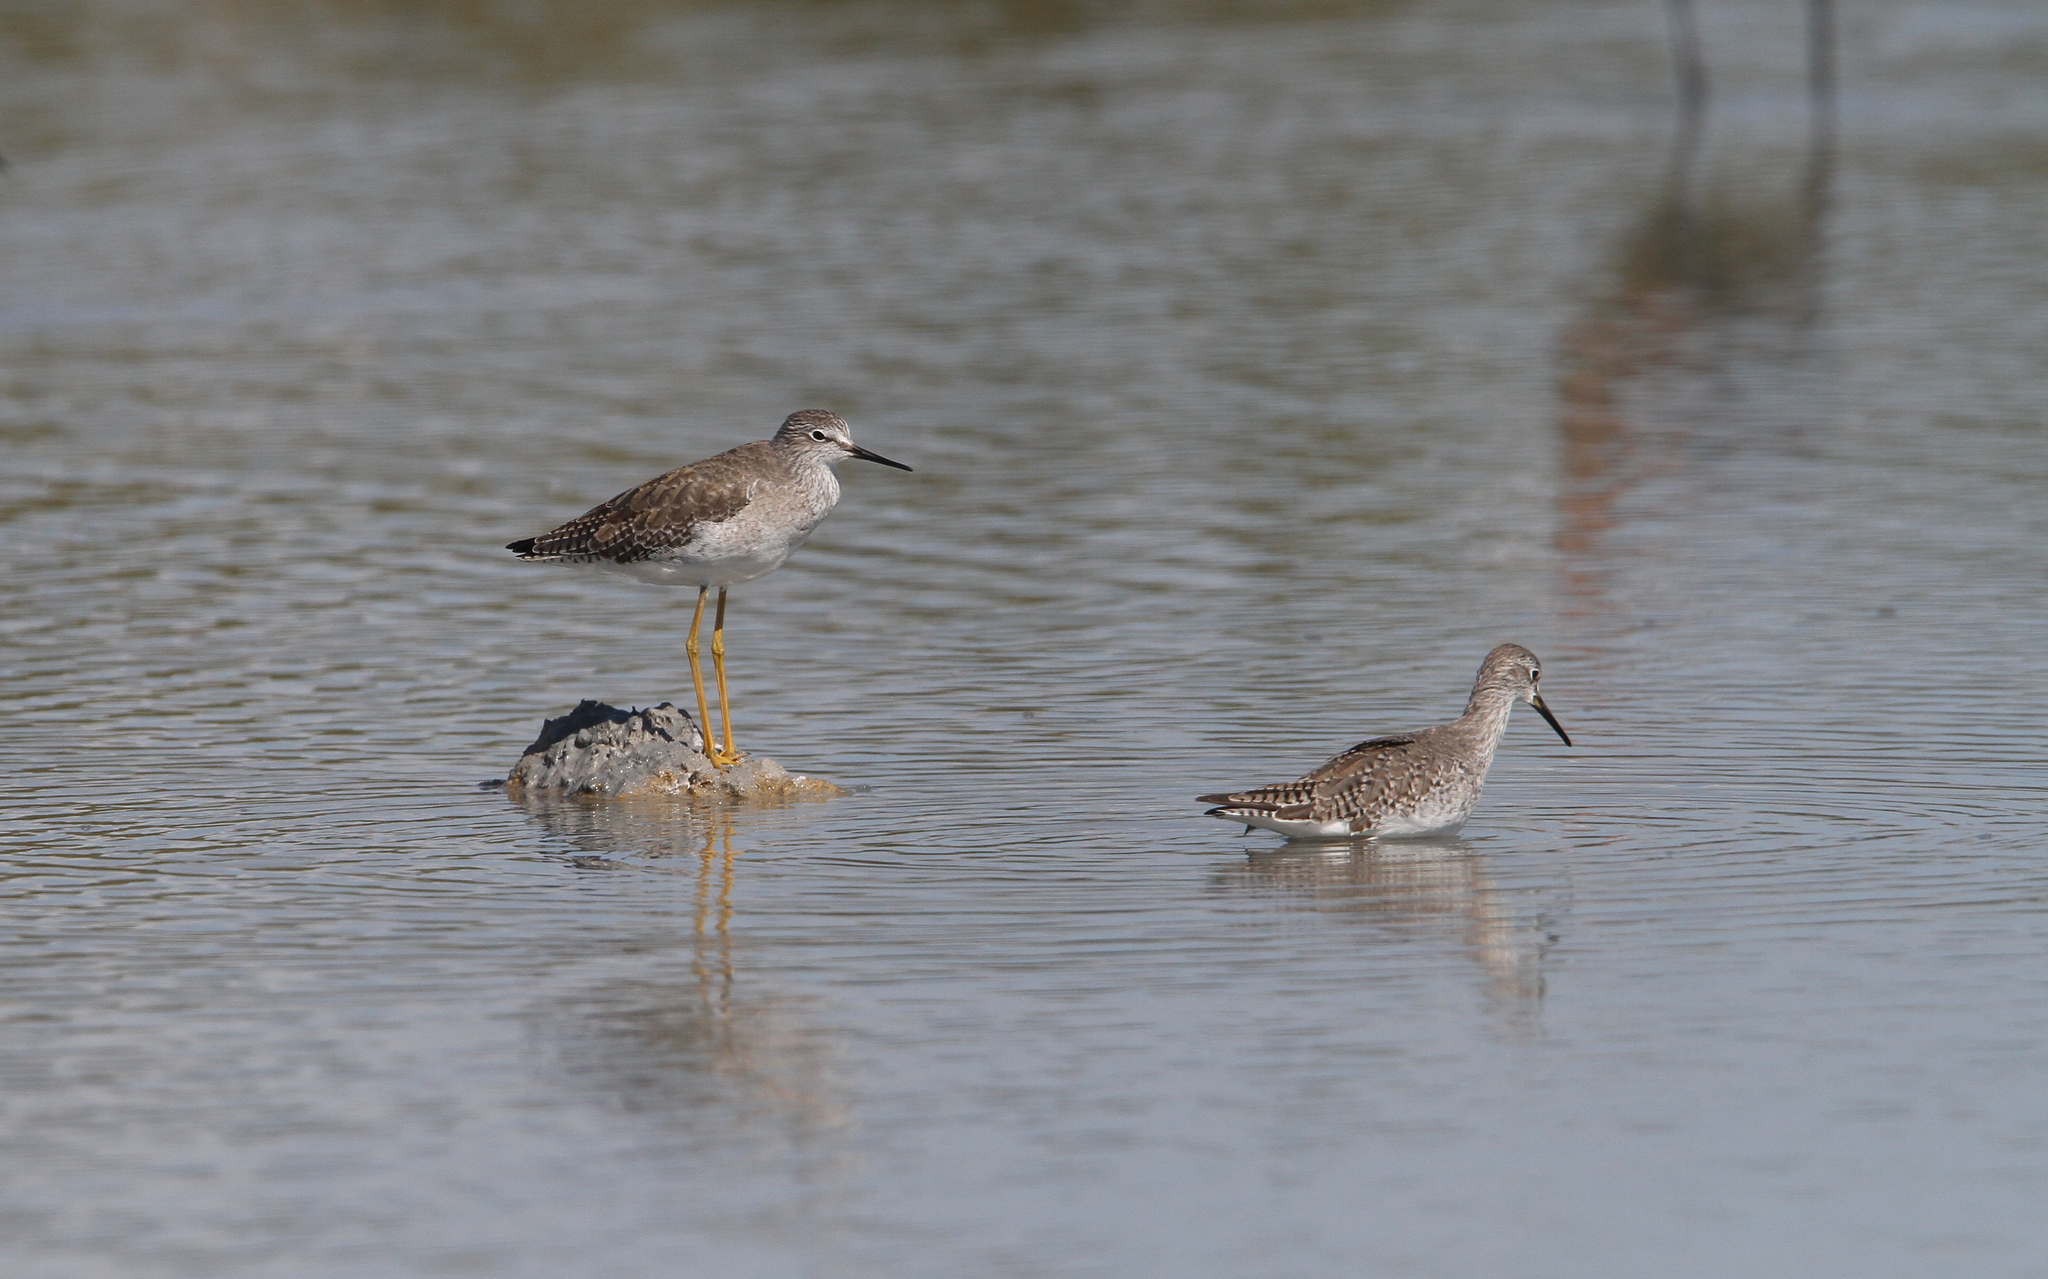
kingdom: Animalia
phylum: Chordata
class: Aves
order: Charadriiformes
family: Scolopacidae
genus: Tringa
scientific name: Tringa flavipes
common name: Lesser yellowlegs
